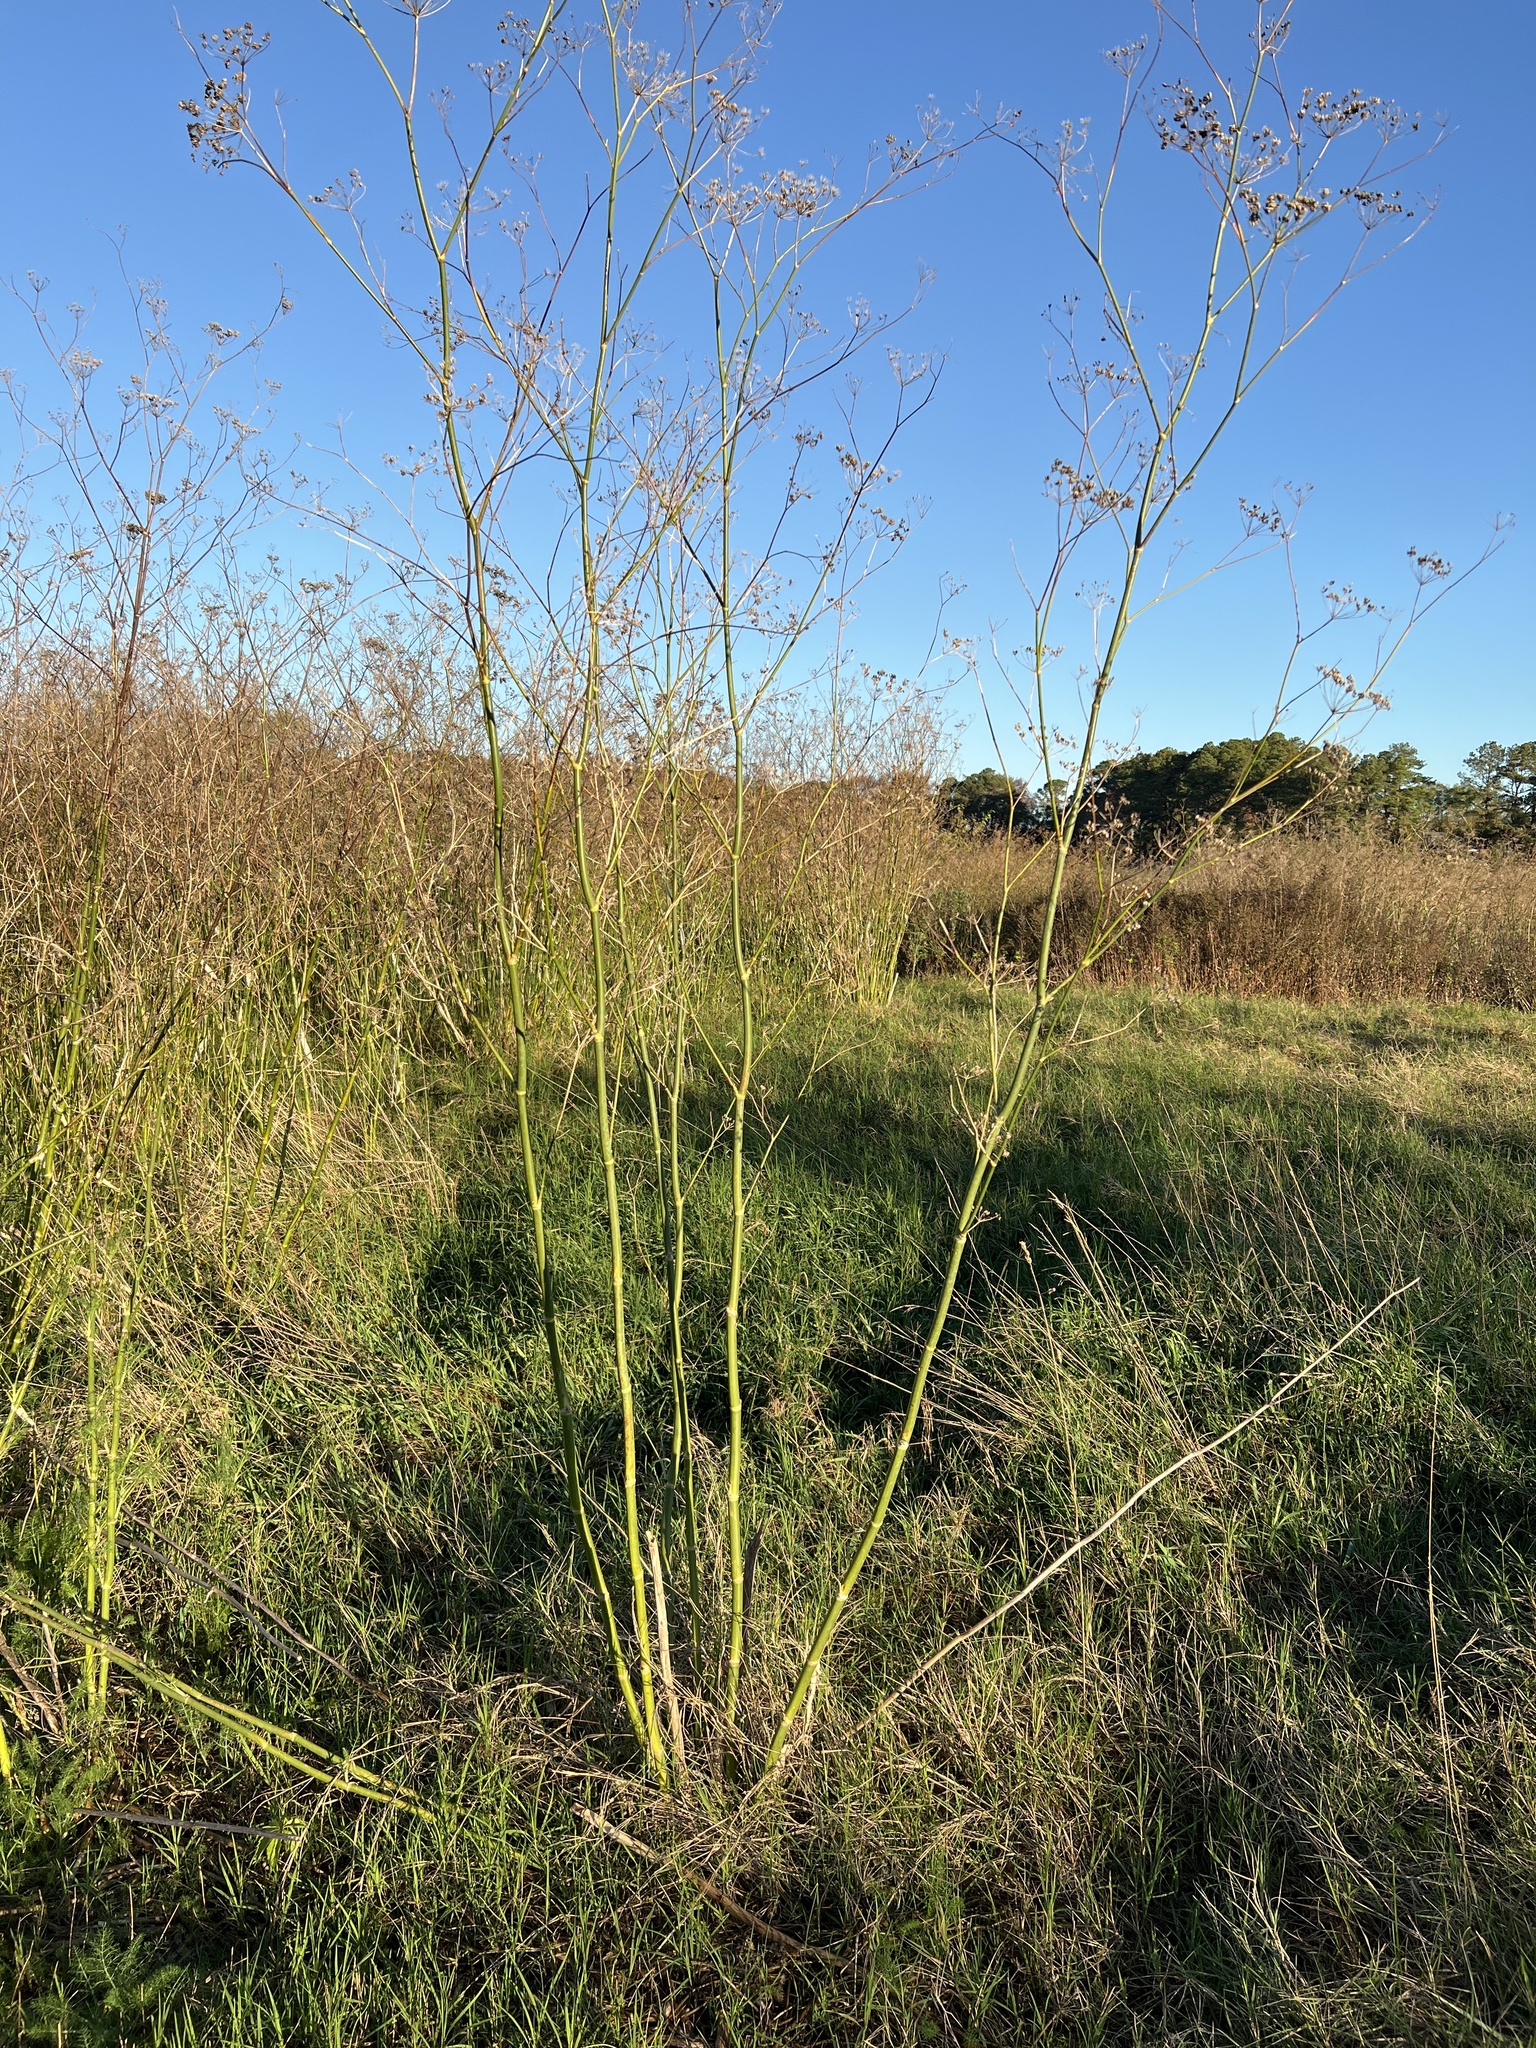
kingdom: Plantae
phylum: Tracheophyta
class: Magnoliopsida
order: Apiales
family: Apiaceae
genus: Foeniculum
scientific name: Foeniculum vulgare
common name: Fennel
